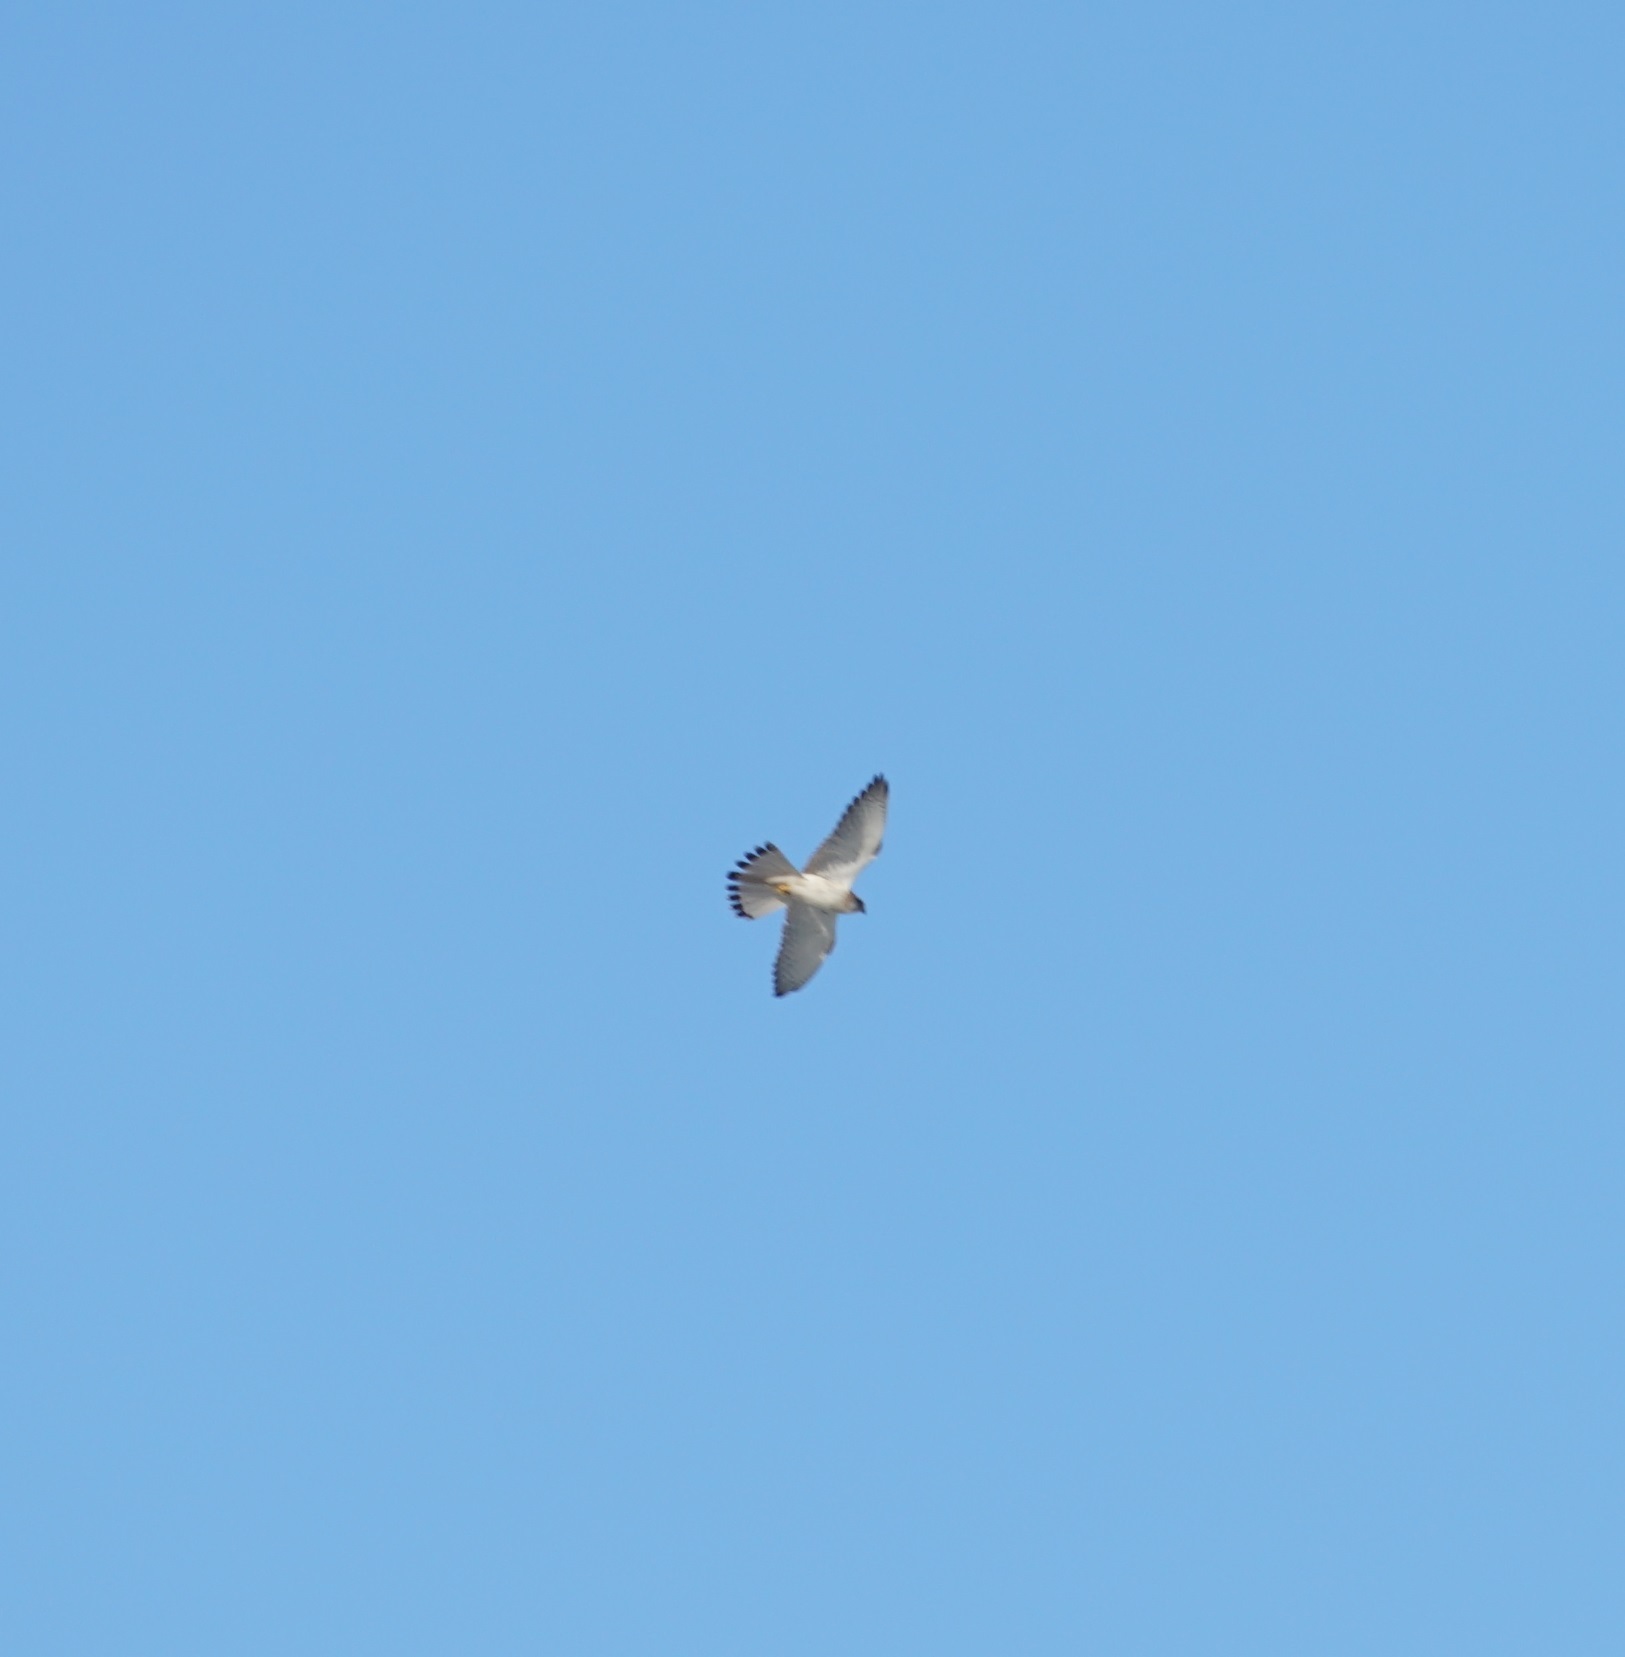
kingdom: Animalia
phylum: Chordata
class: Aves
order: Falconiformes
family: Falconidae
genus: Falco
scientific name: Falco cenchroides
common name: Nankeen kestrel
